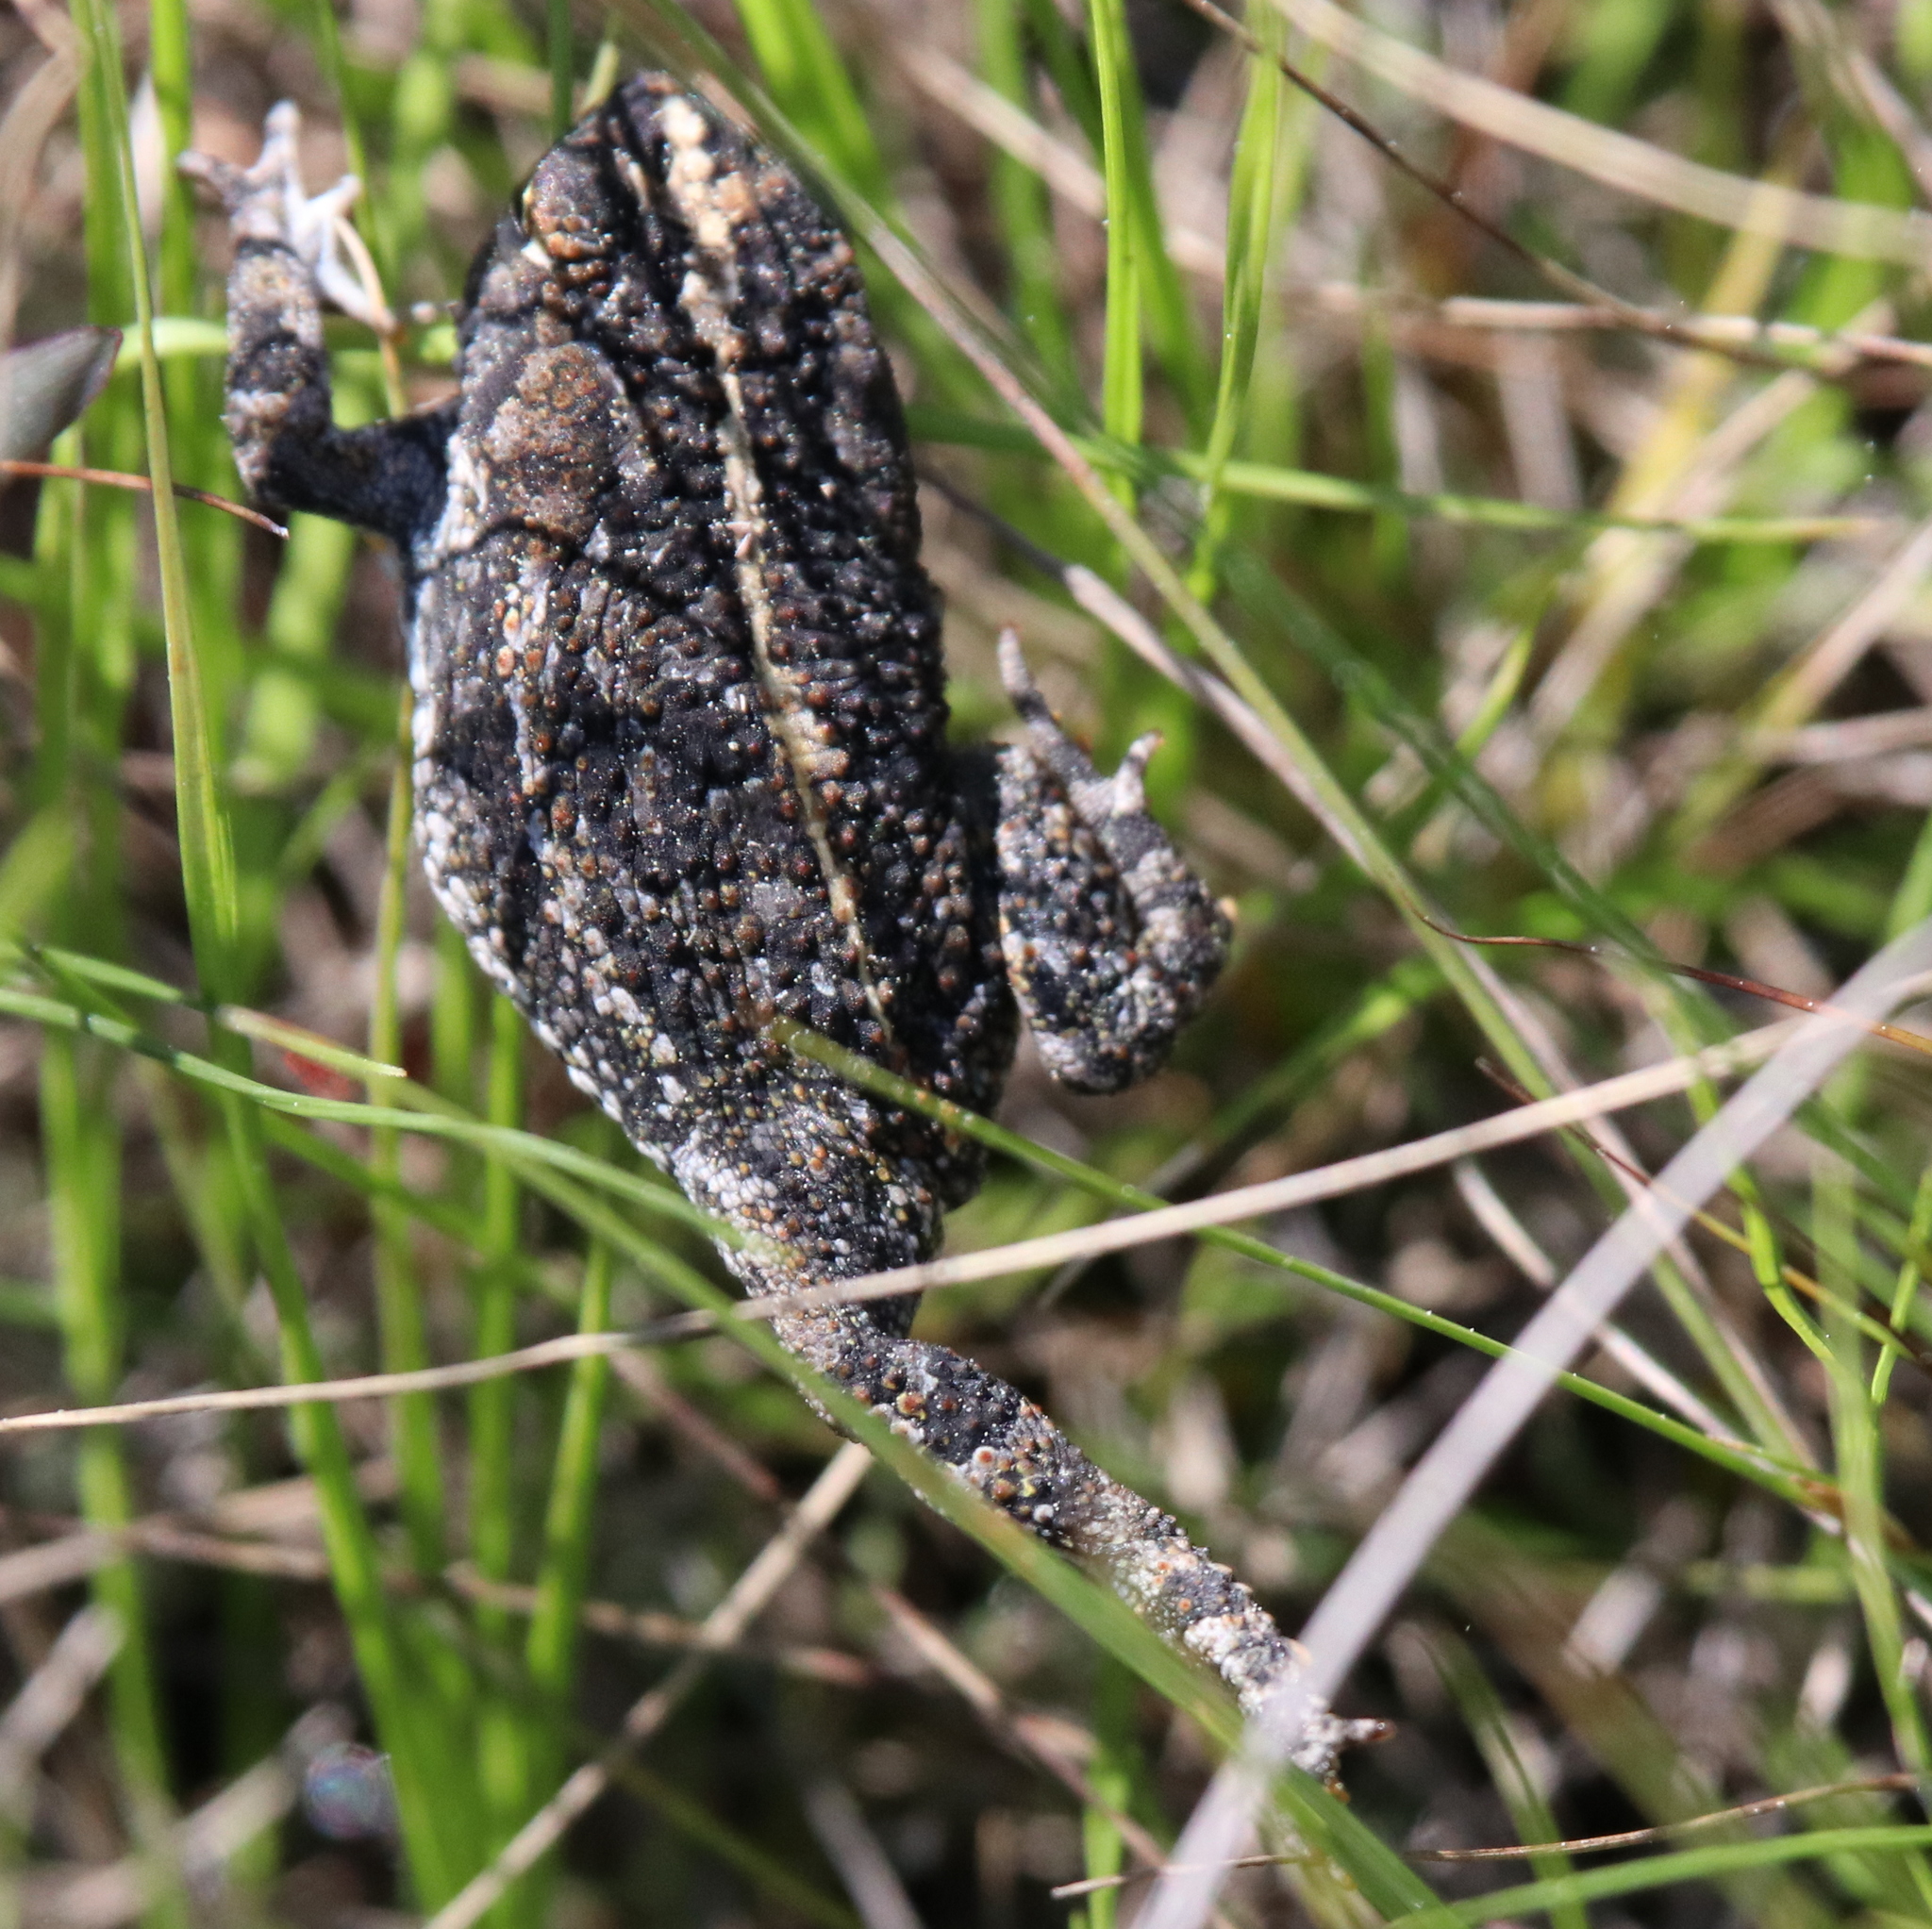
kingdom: Animalia
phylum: Chordata
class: Amphibia
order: Anura
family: Bufonidae
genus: Anaxyrus
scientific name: Anaxyrus quercicus
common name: Oak toad
